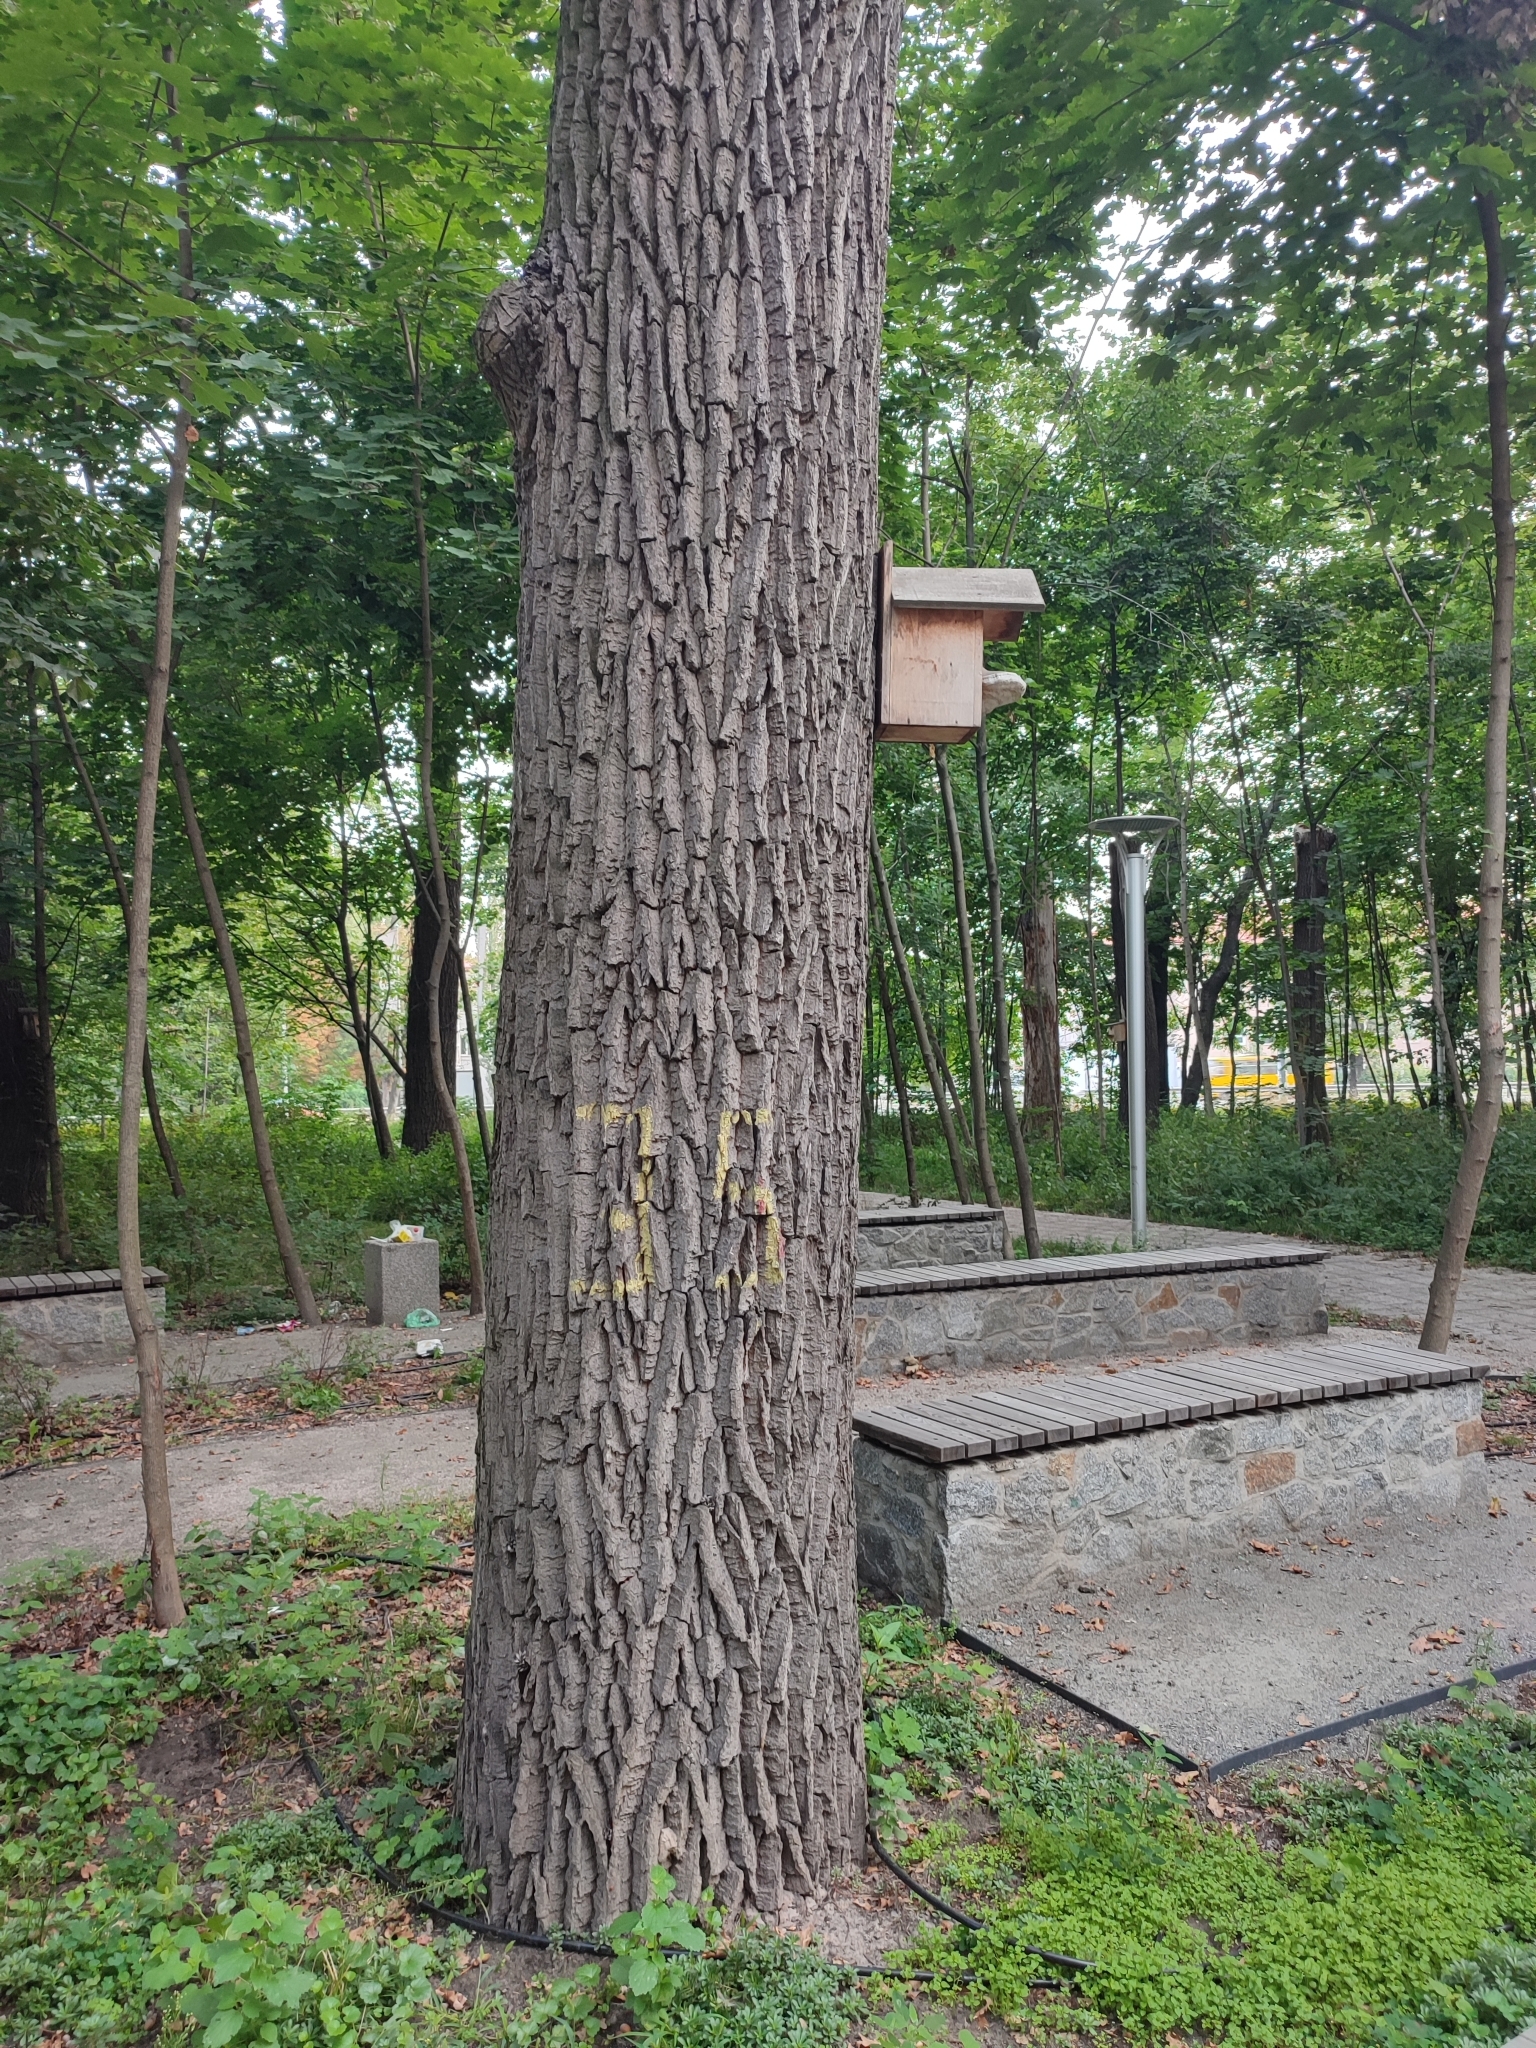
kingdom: Plantae
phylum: Tracheophyta
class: Magnoliopsida
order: Fagales
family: Fagaceae
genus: Quercus
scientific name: Quercus robur
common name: Pedunculate oak
